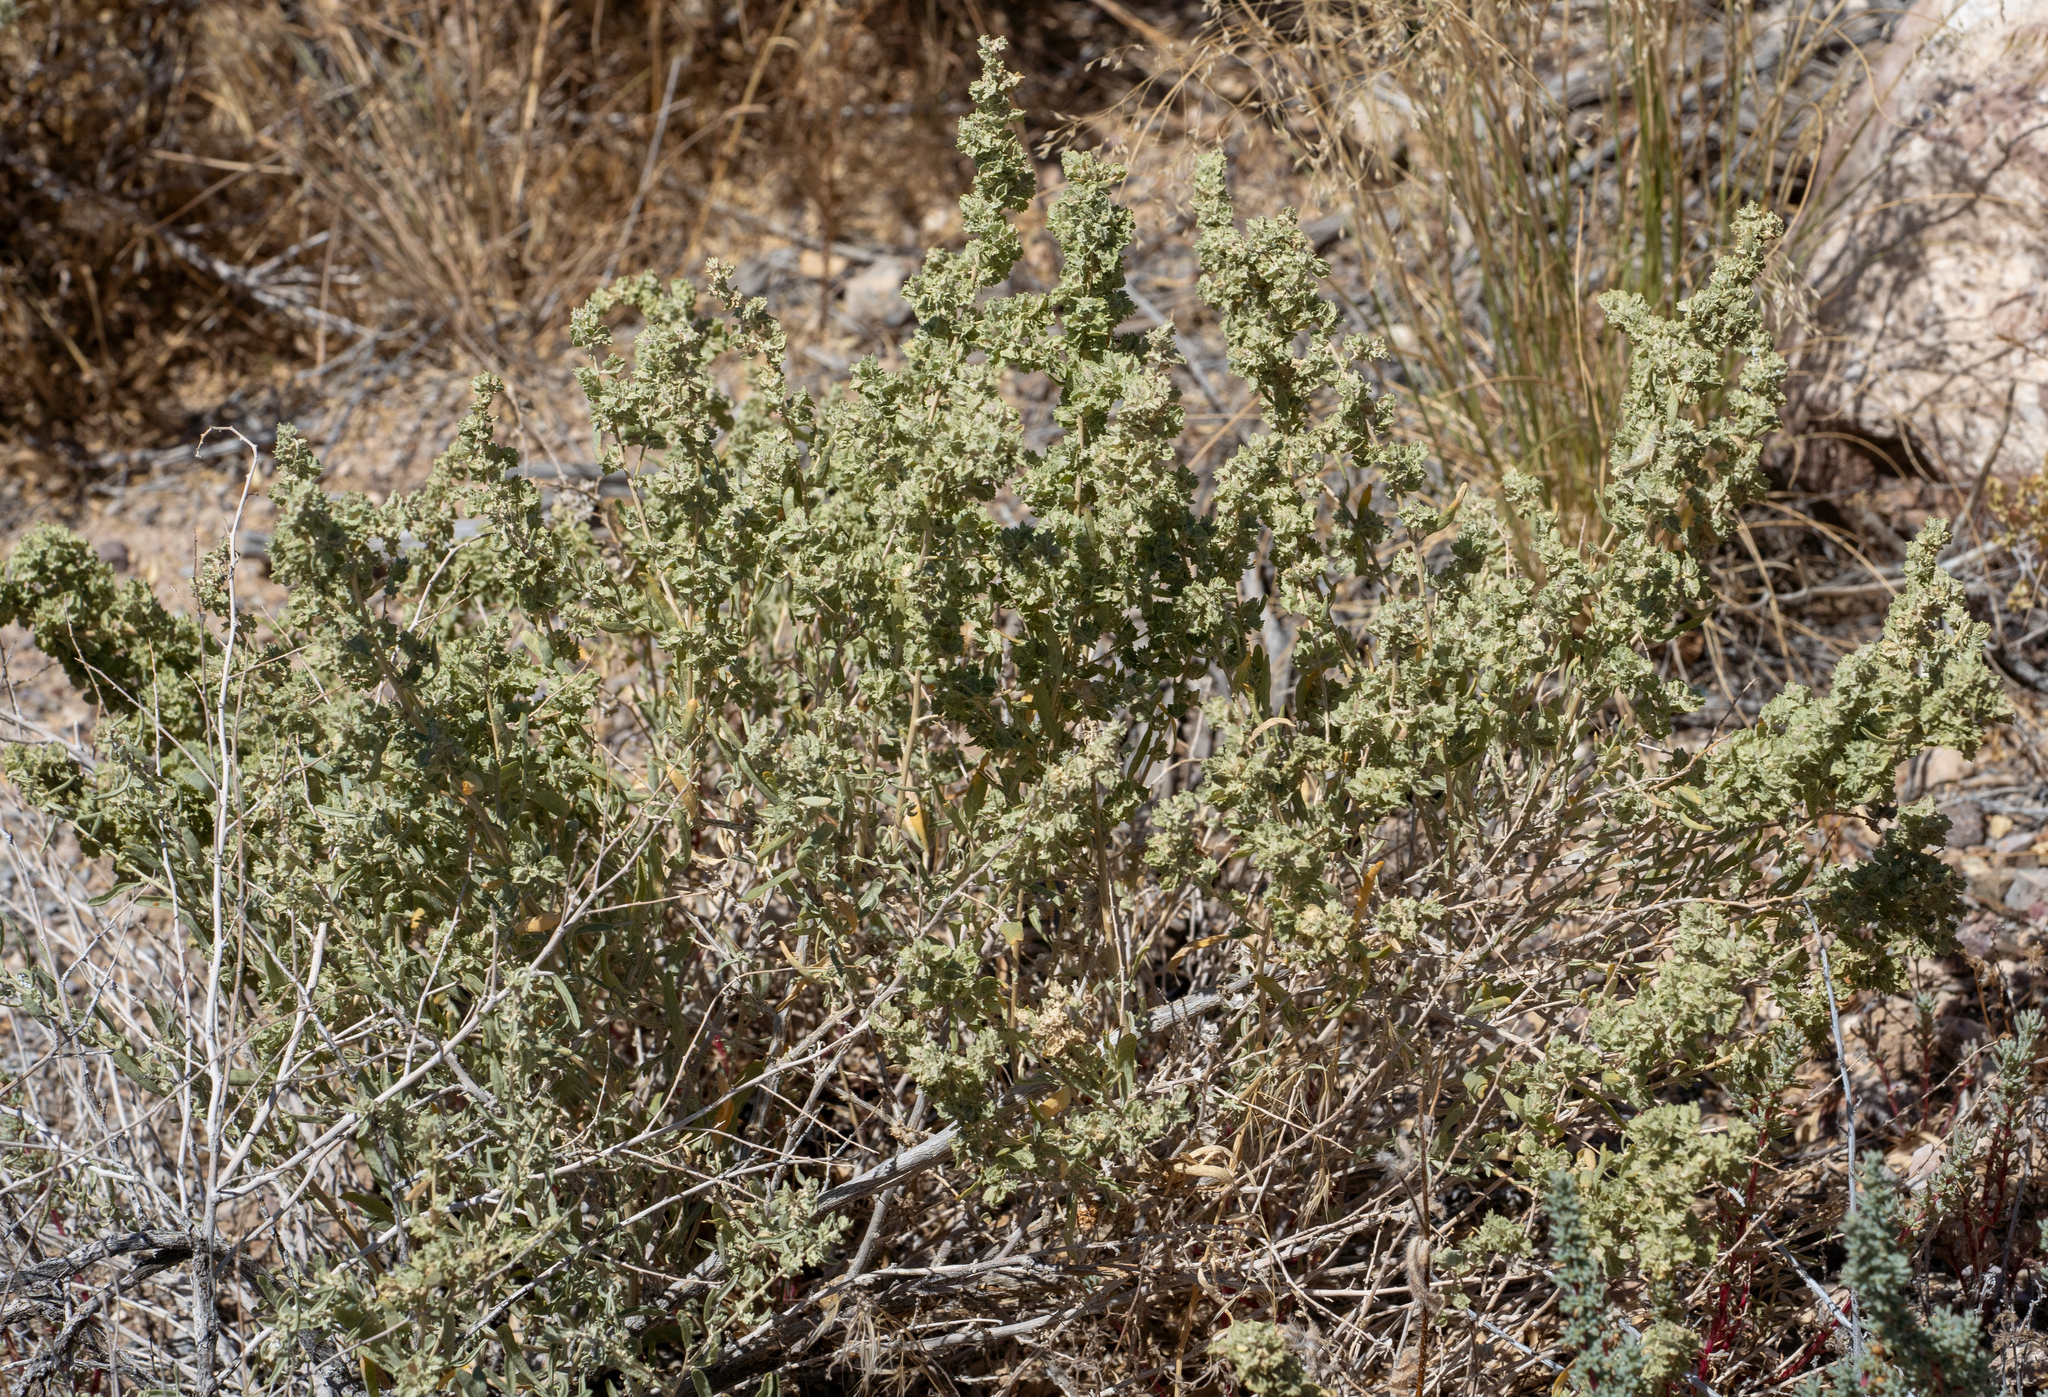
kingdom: Plantae
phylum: Tracheophyta
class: Magnoliopsida
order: Caryophyllales
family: Amaranthaceae
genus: Atriplex
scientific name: Atriplex canescens
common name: Four-wing saltbush
